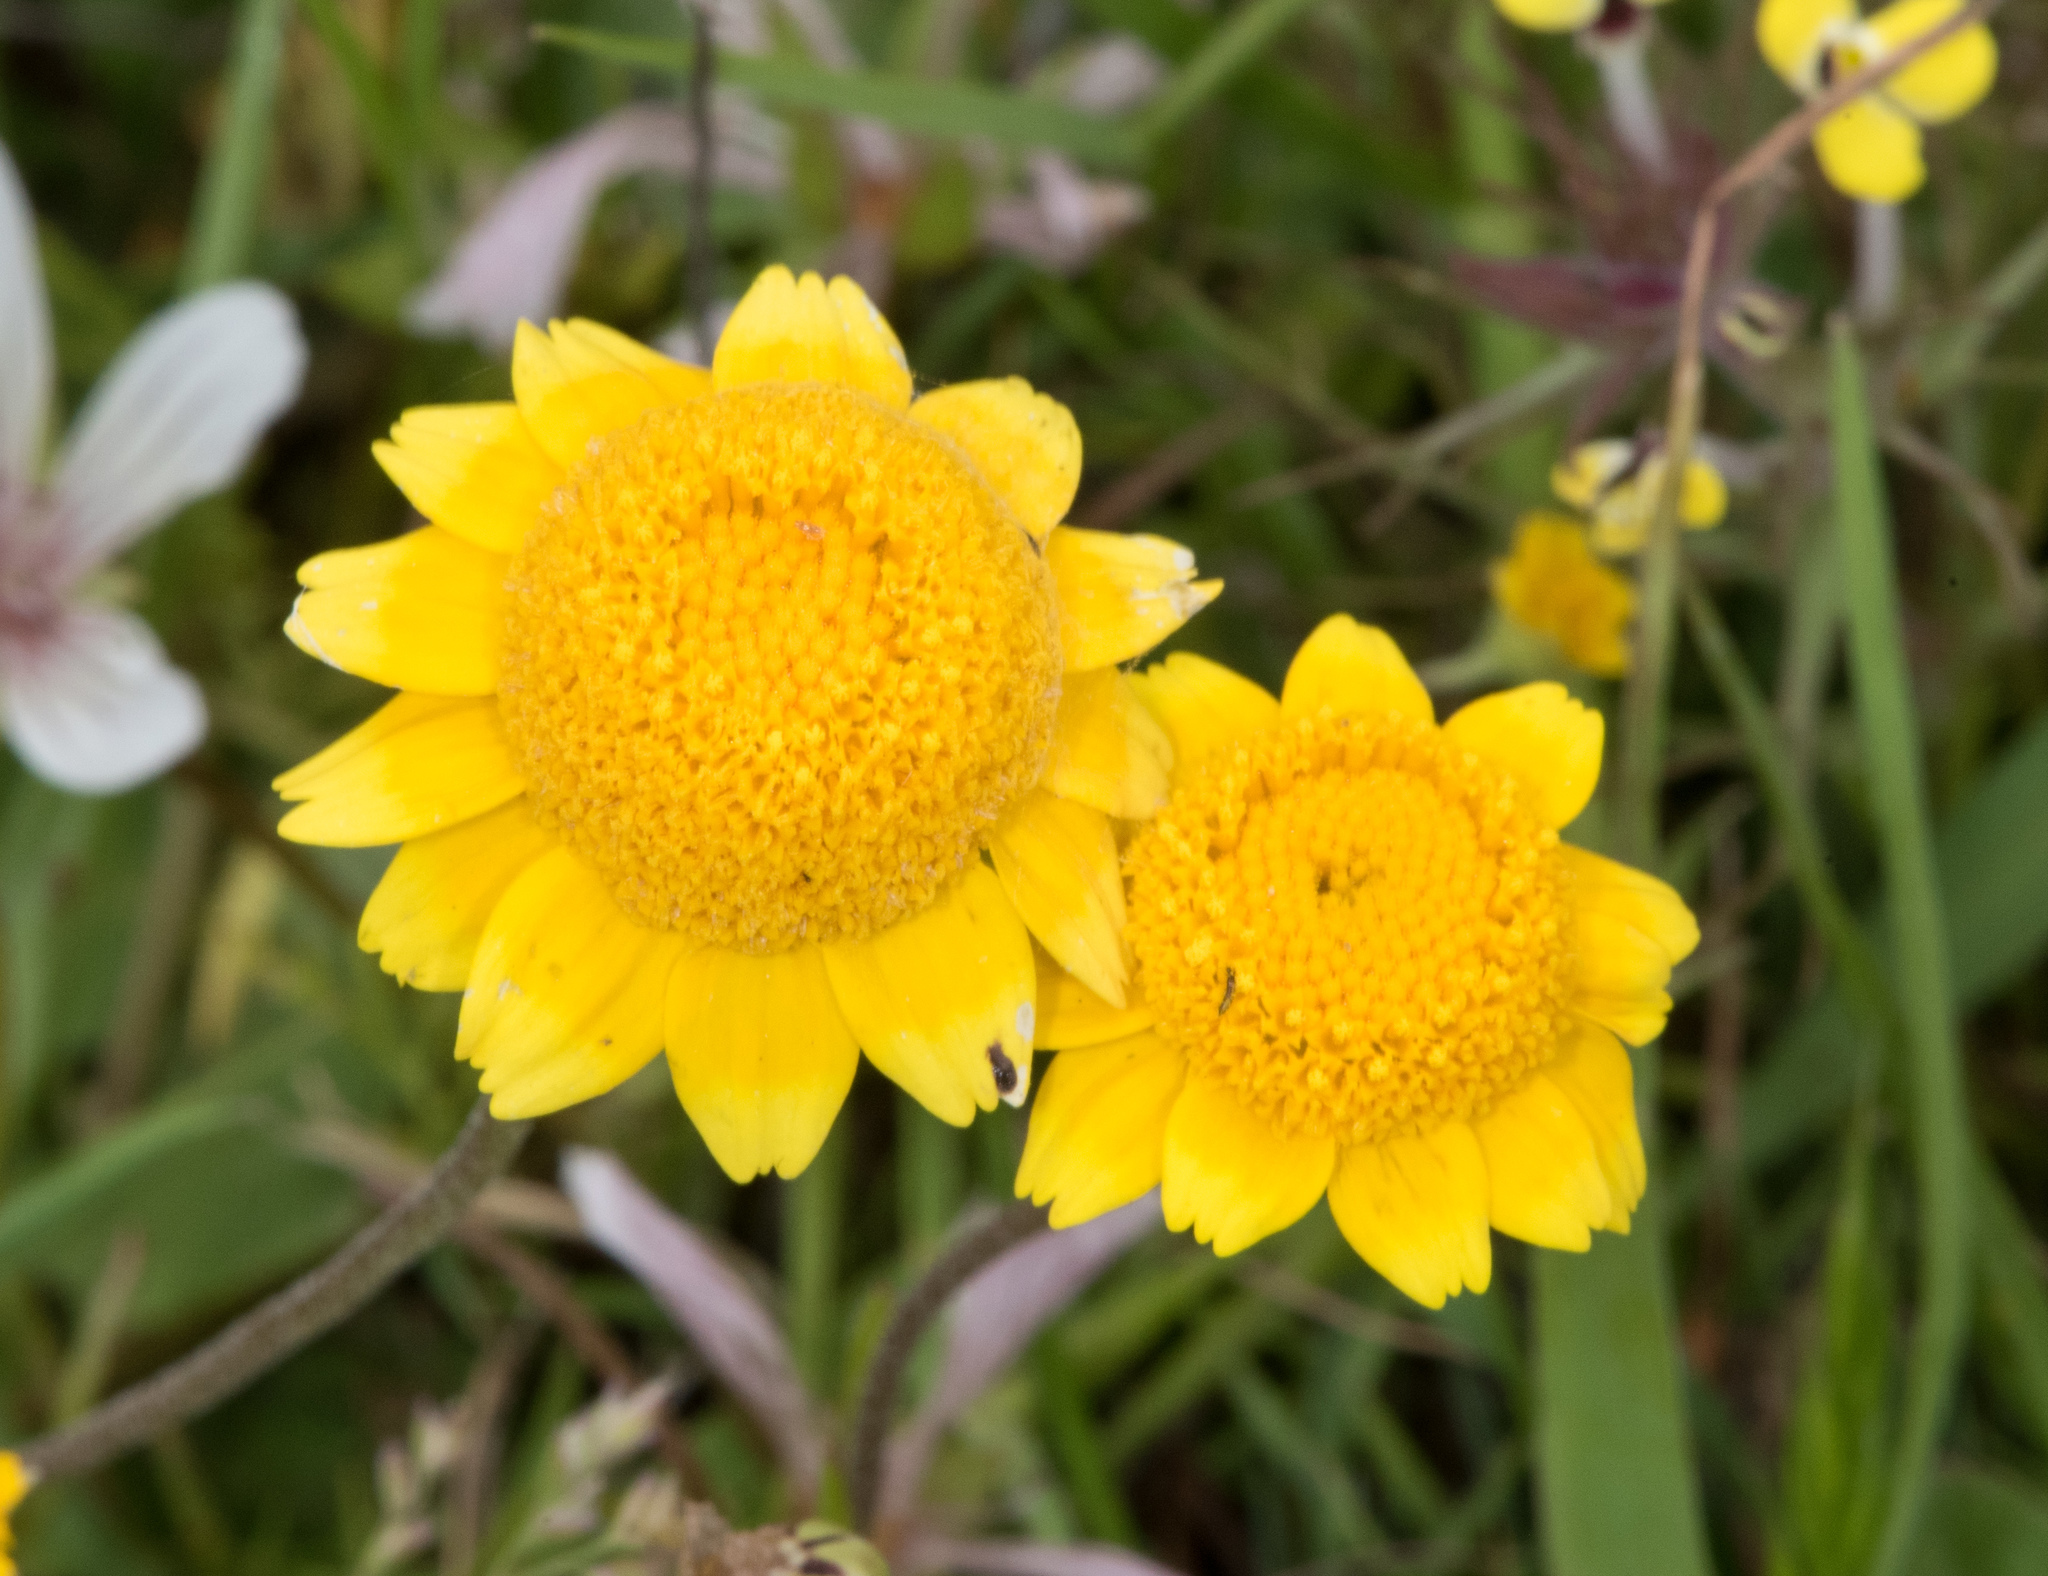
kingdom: Plantae
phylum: Tracheophyta
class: Magnoliopsida
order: Asterales
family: Asteraceae
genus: Lasthenia
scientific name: Lasthenia fremontii
